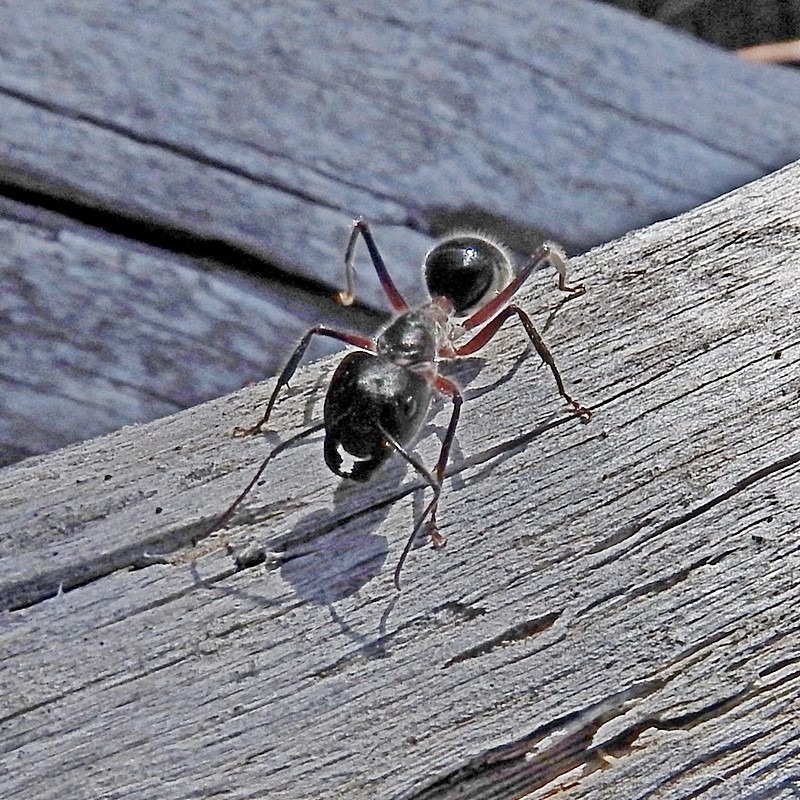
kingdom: Animalia
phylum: Arthropoda
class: Insecta
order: Hymenoptera
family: Formicidae
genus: Camponotus
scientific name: Camponotus intrepidus
